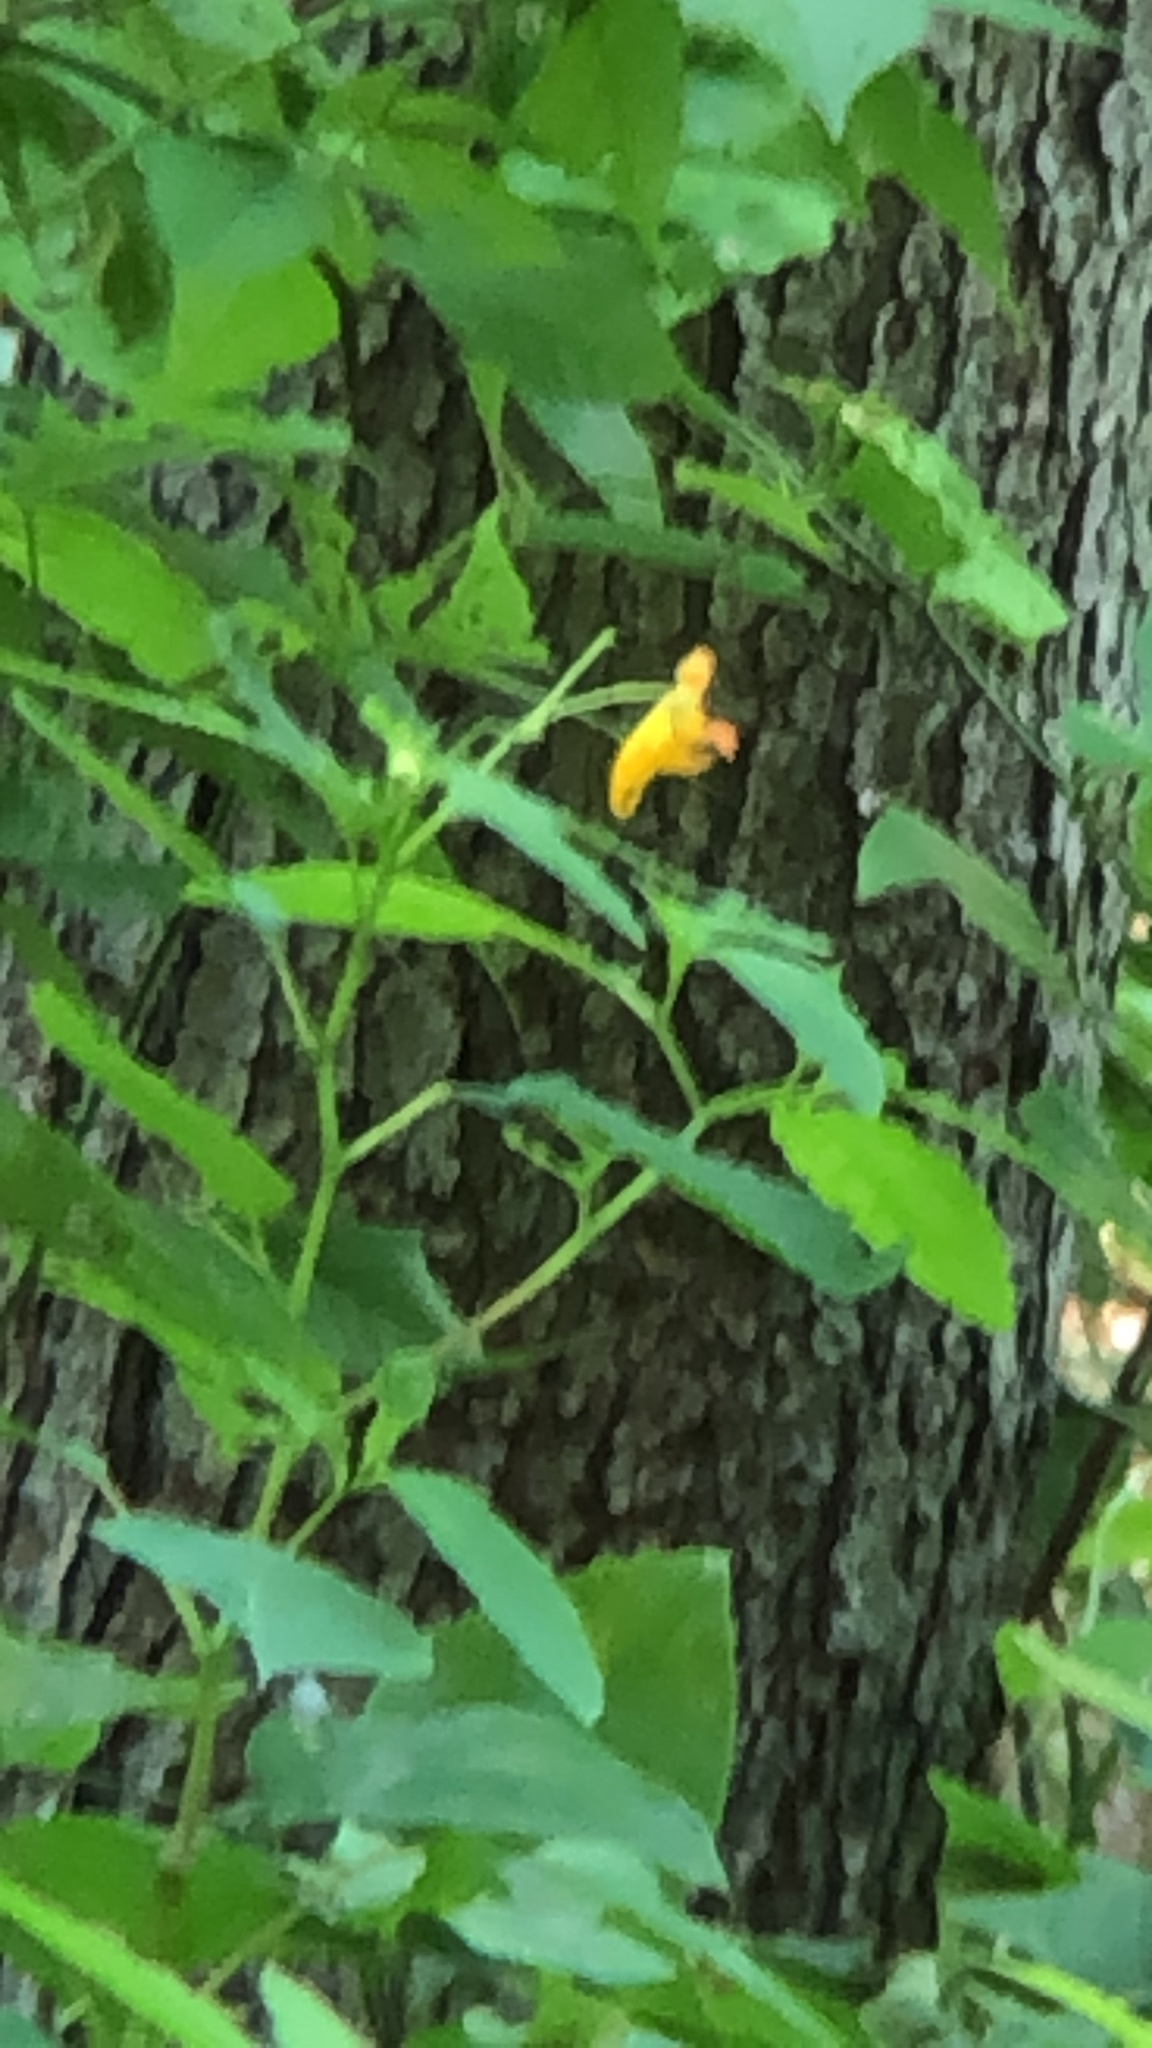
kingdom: Plantae
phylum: Tracheophyta
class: Magnoliopsida
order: Ericales
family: Balsaminaceae
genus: Impatiens
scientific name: Impatiens capensis
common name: Orange balsam
